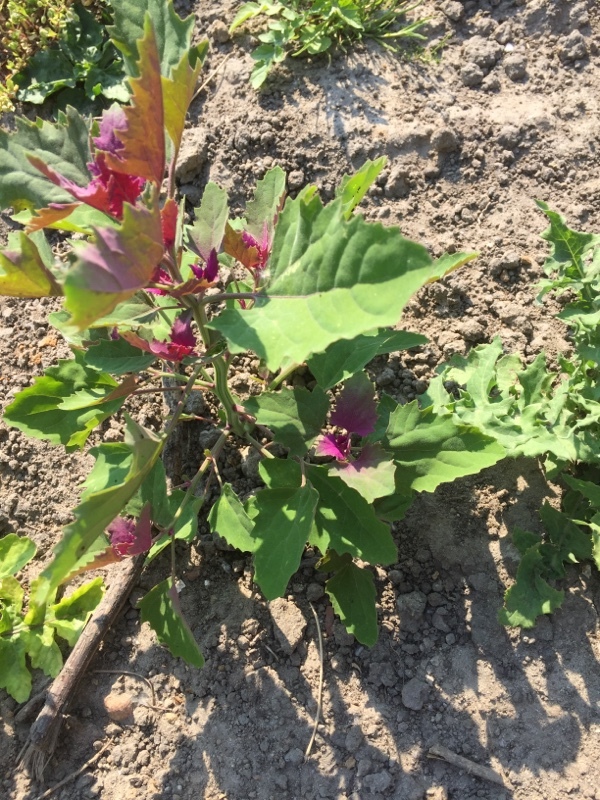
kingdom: Plantae
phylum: Tracheophyta
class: Magnoliopsida
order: Caryophyllales
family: Amaranthaceae
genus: Chenopodium
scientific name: Chenopodium giganteum
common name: Magentaspreen
